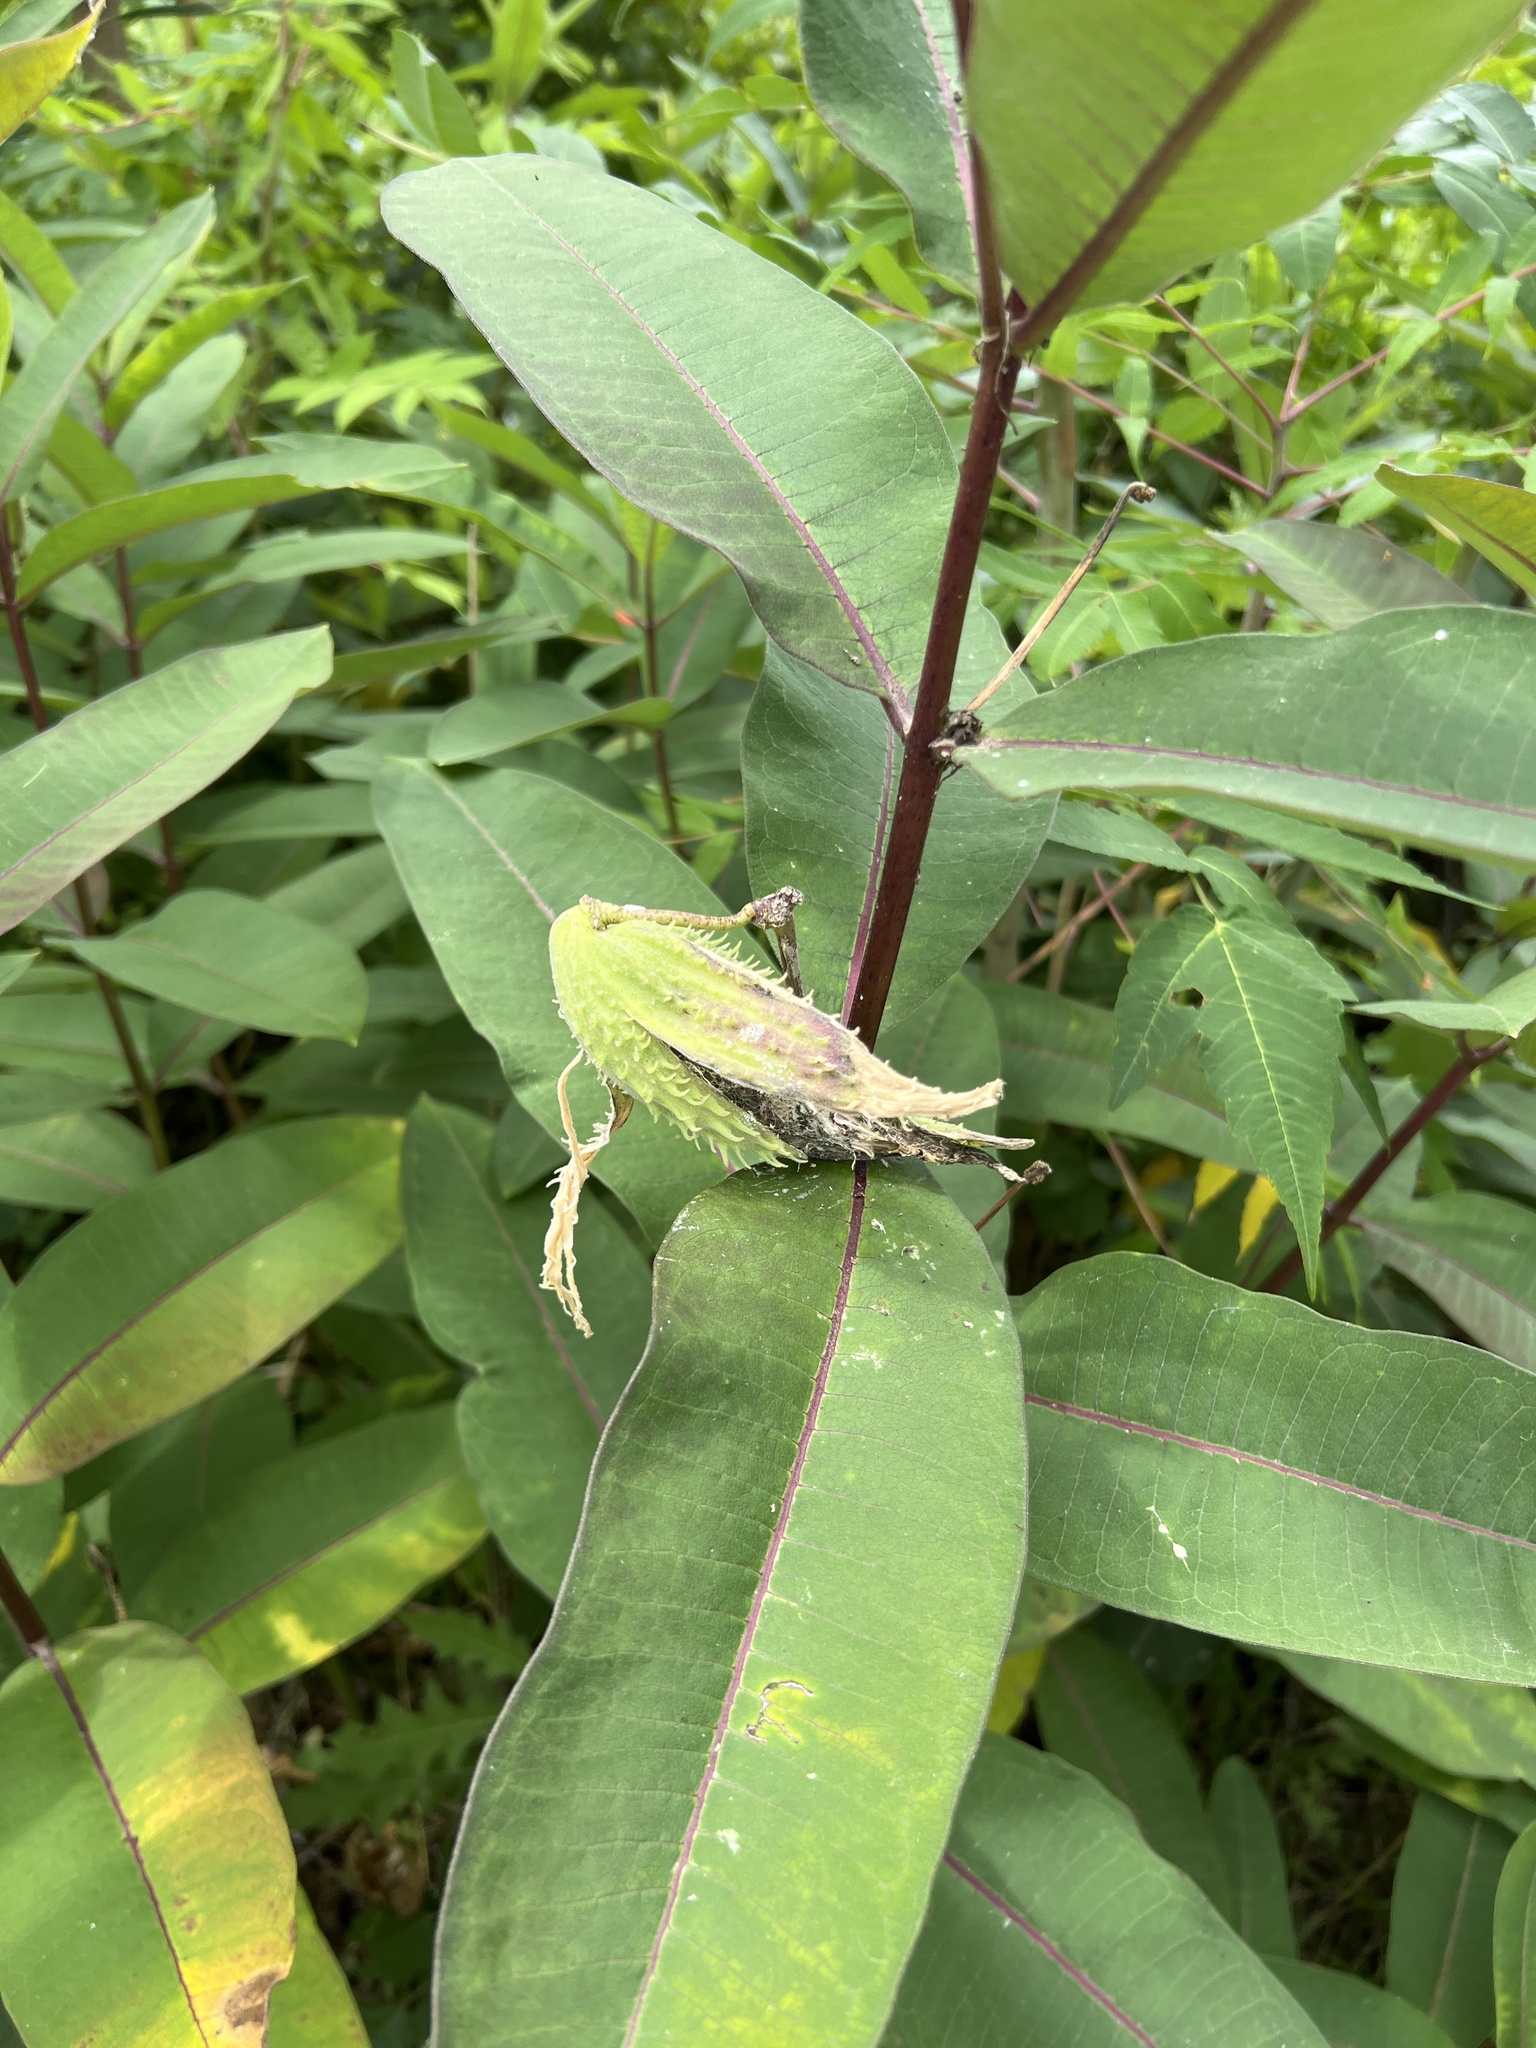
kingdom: Plantae
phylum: Tracheophyta
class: Magnoliopsida
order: Gentianales
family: Apocynaceae
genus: Asclepias
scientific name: Asclepias syriaca
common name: Common milkweed
